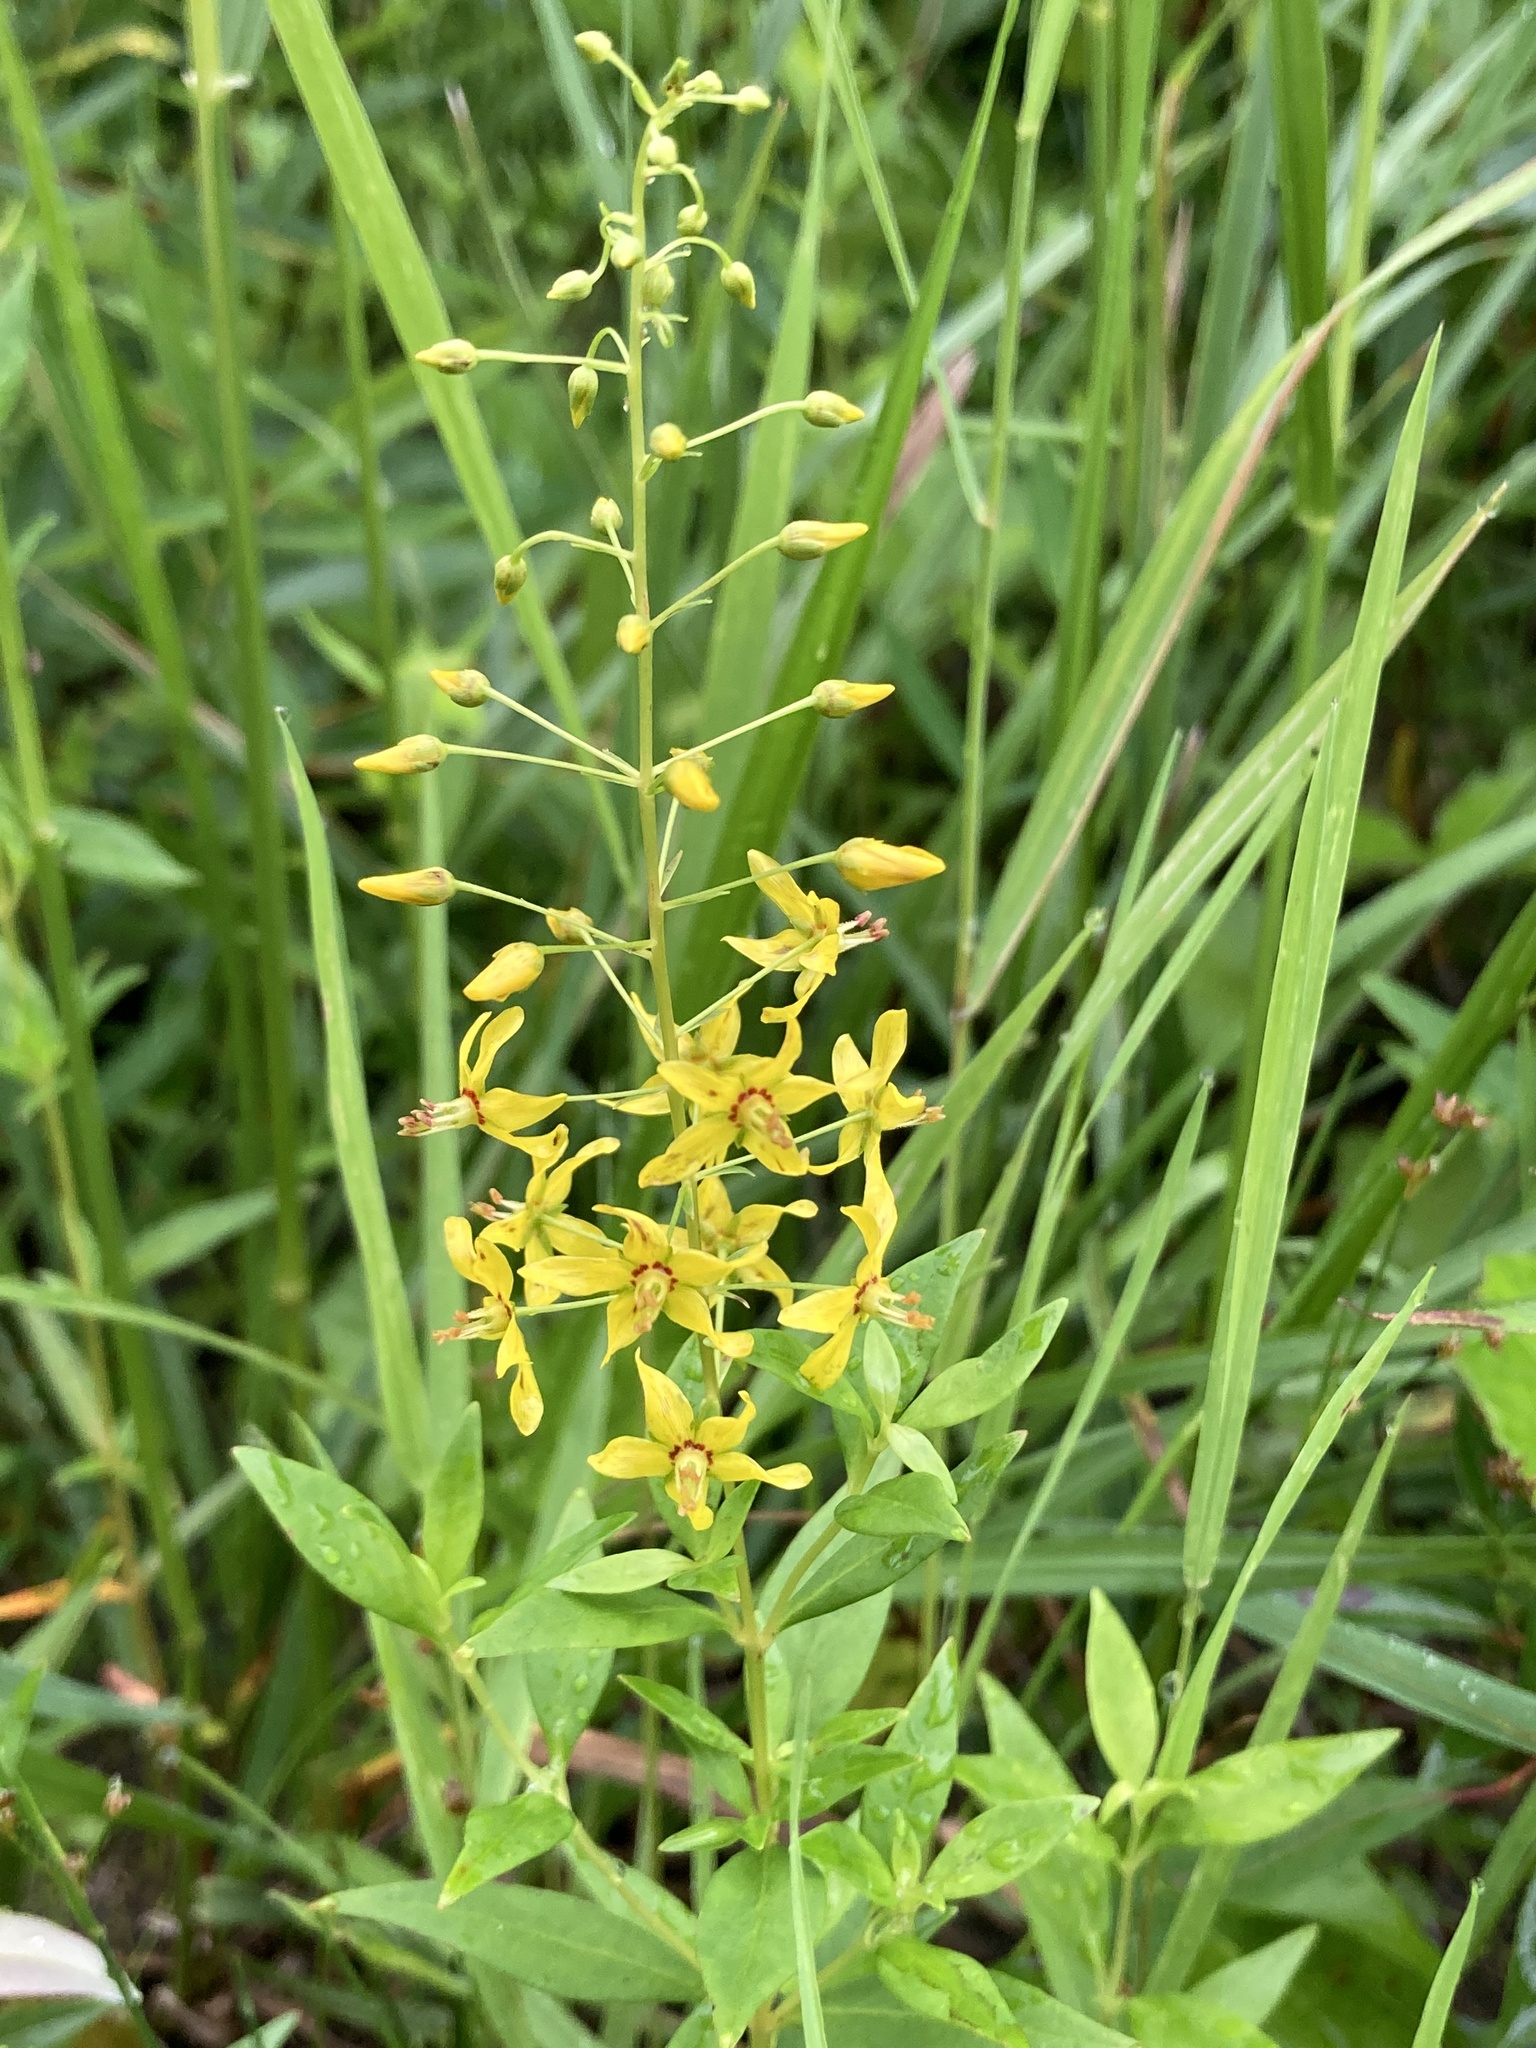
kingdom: Plantae
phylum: Tracheophyta
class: Magnoliopsida
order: Ericales
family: Primulaceae
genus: Lysimachia
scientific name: Lysimachia terrestris
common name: Lake loosestrife
